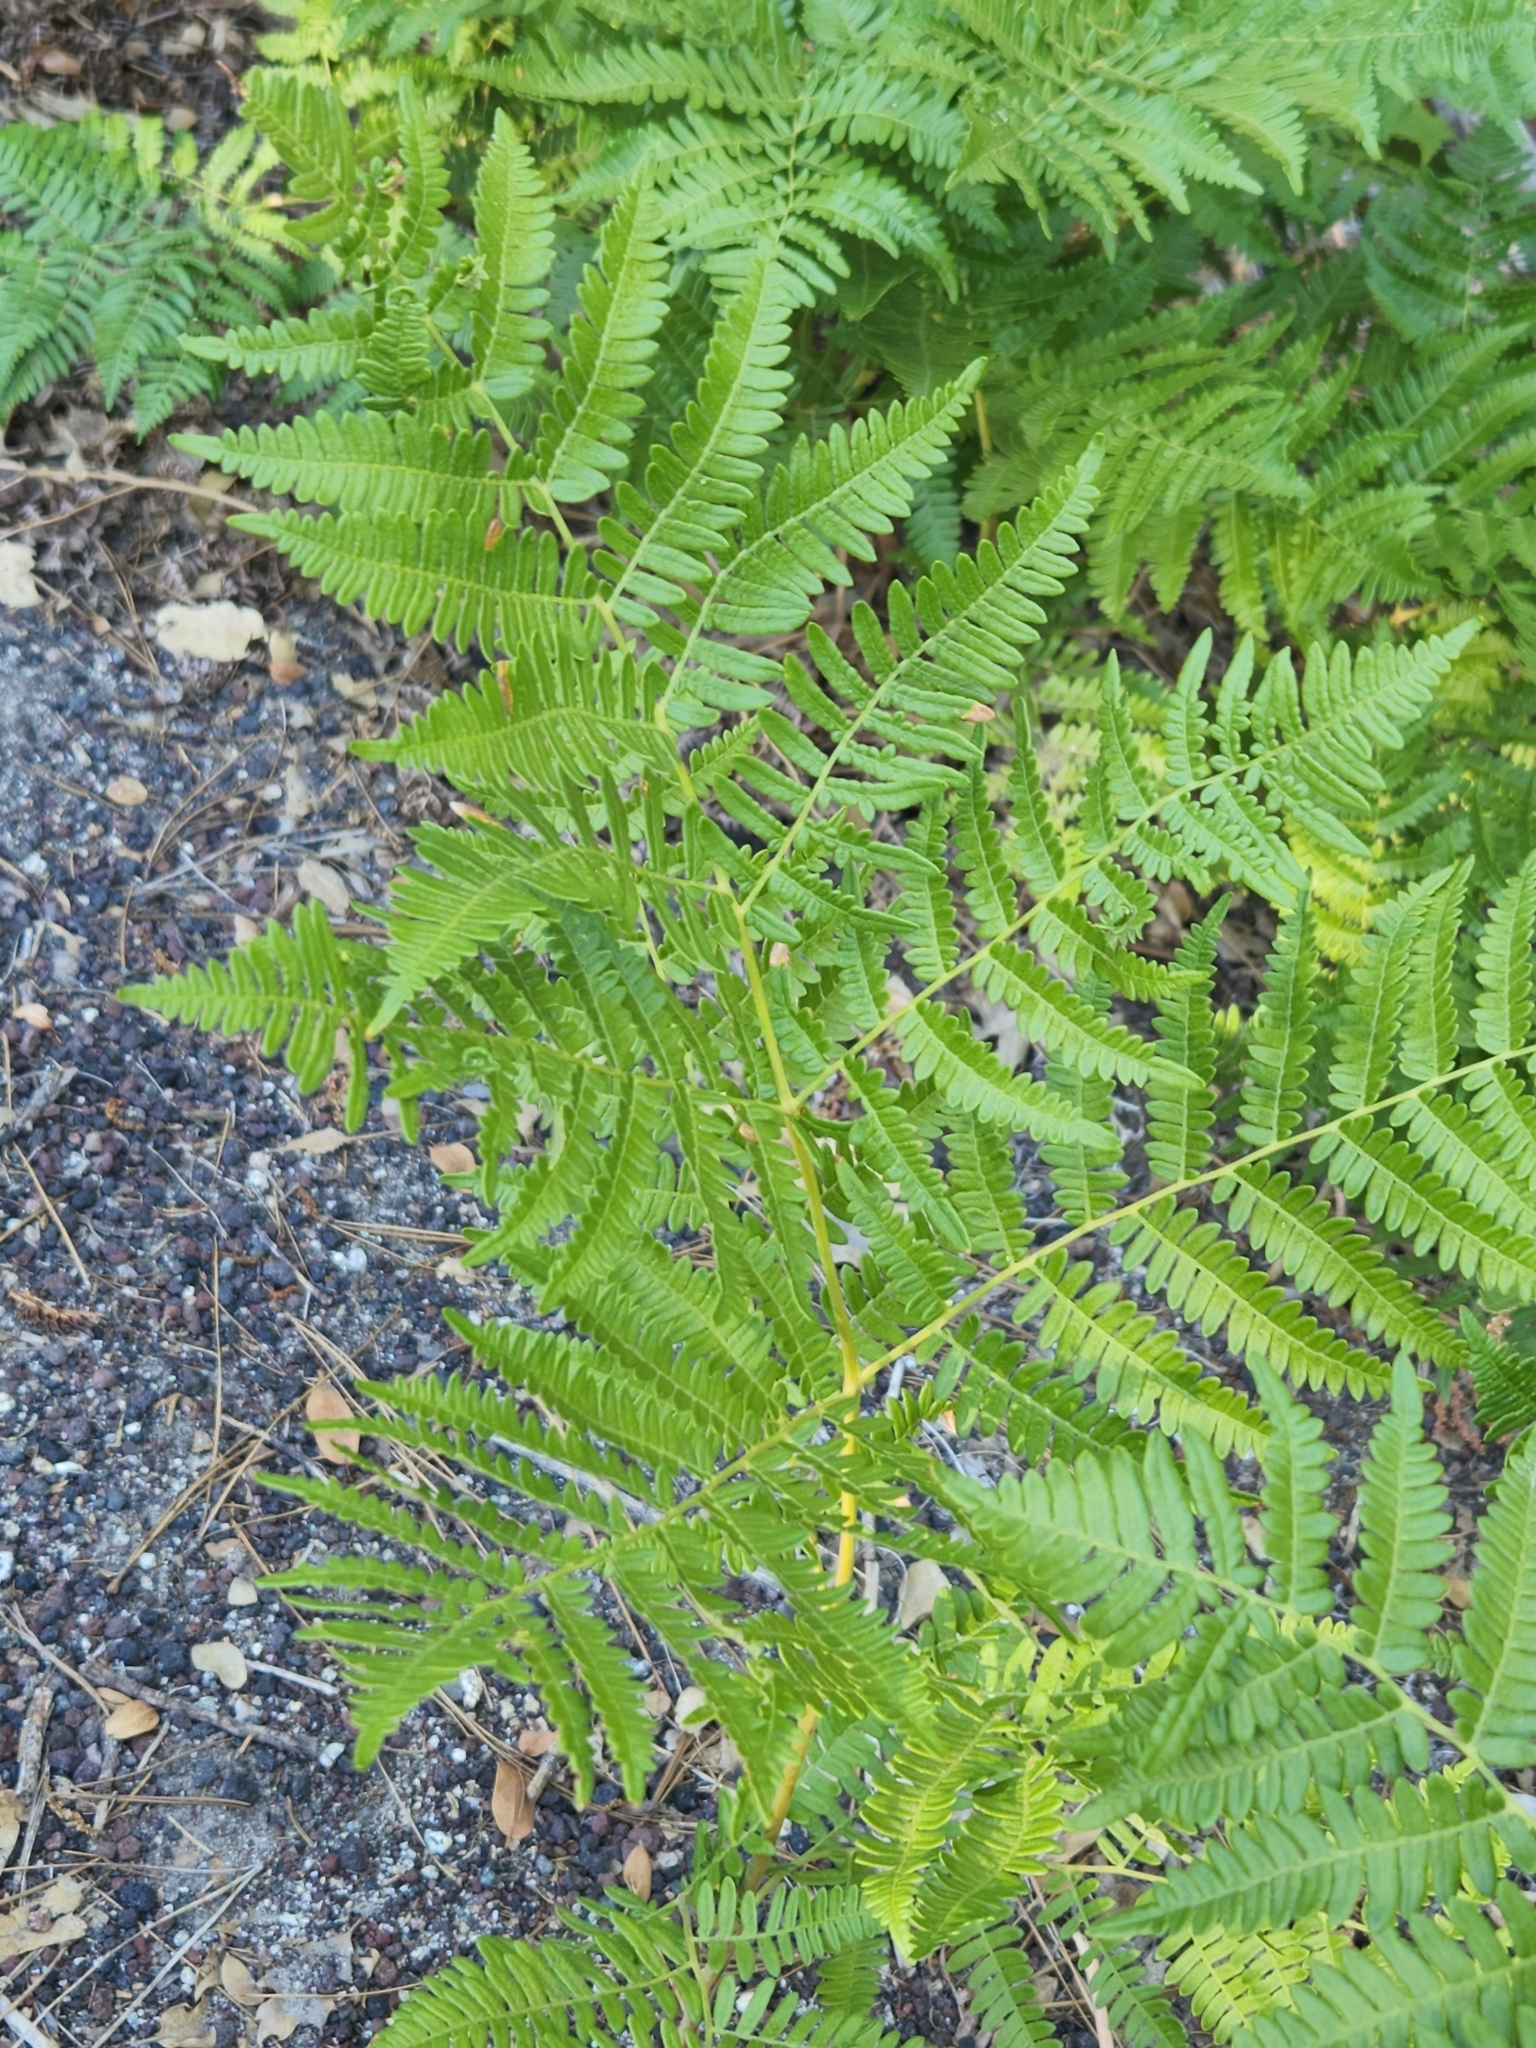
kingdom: Plantae
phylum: Tracheophyta
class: Polypodiopsida
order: Polypodiales
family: Dennstaedtiaceae
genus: Pteridium
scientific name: Pteridium aquilinum
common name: Bracken
